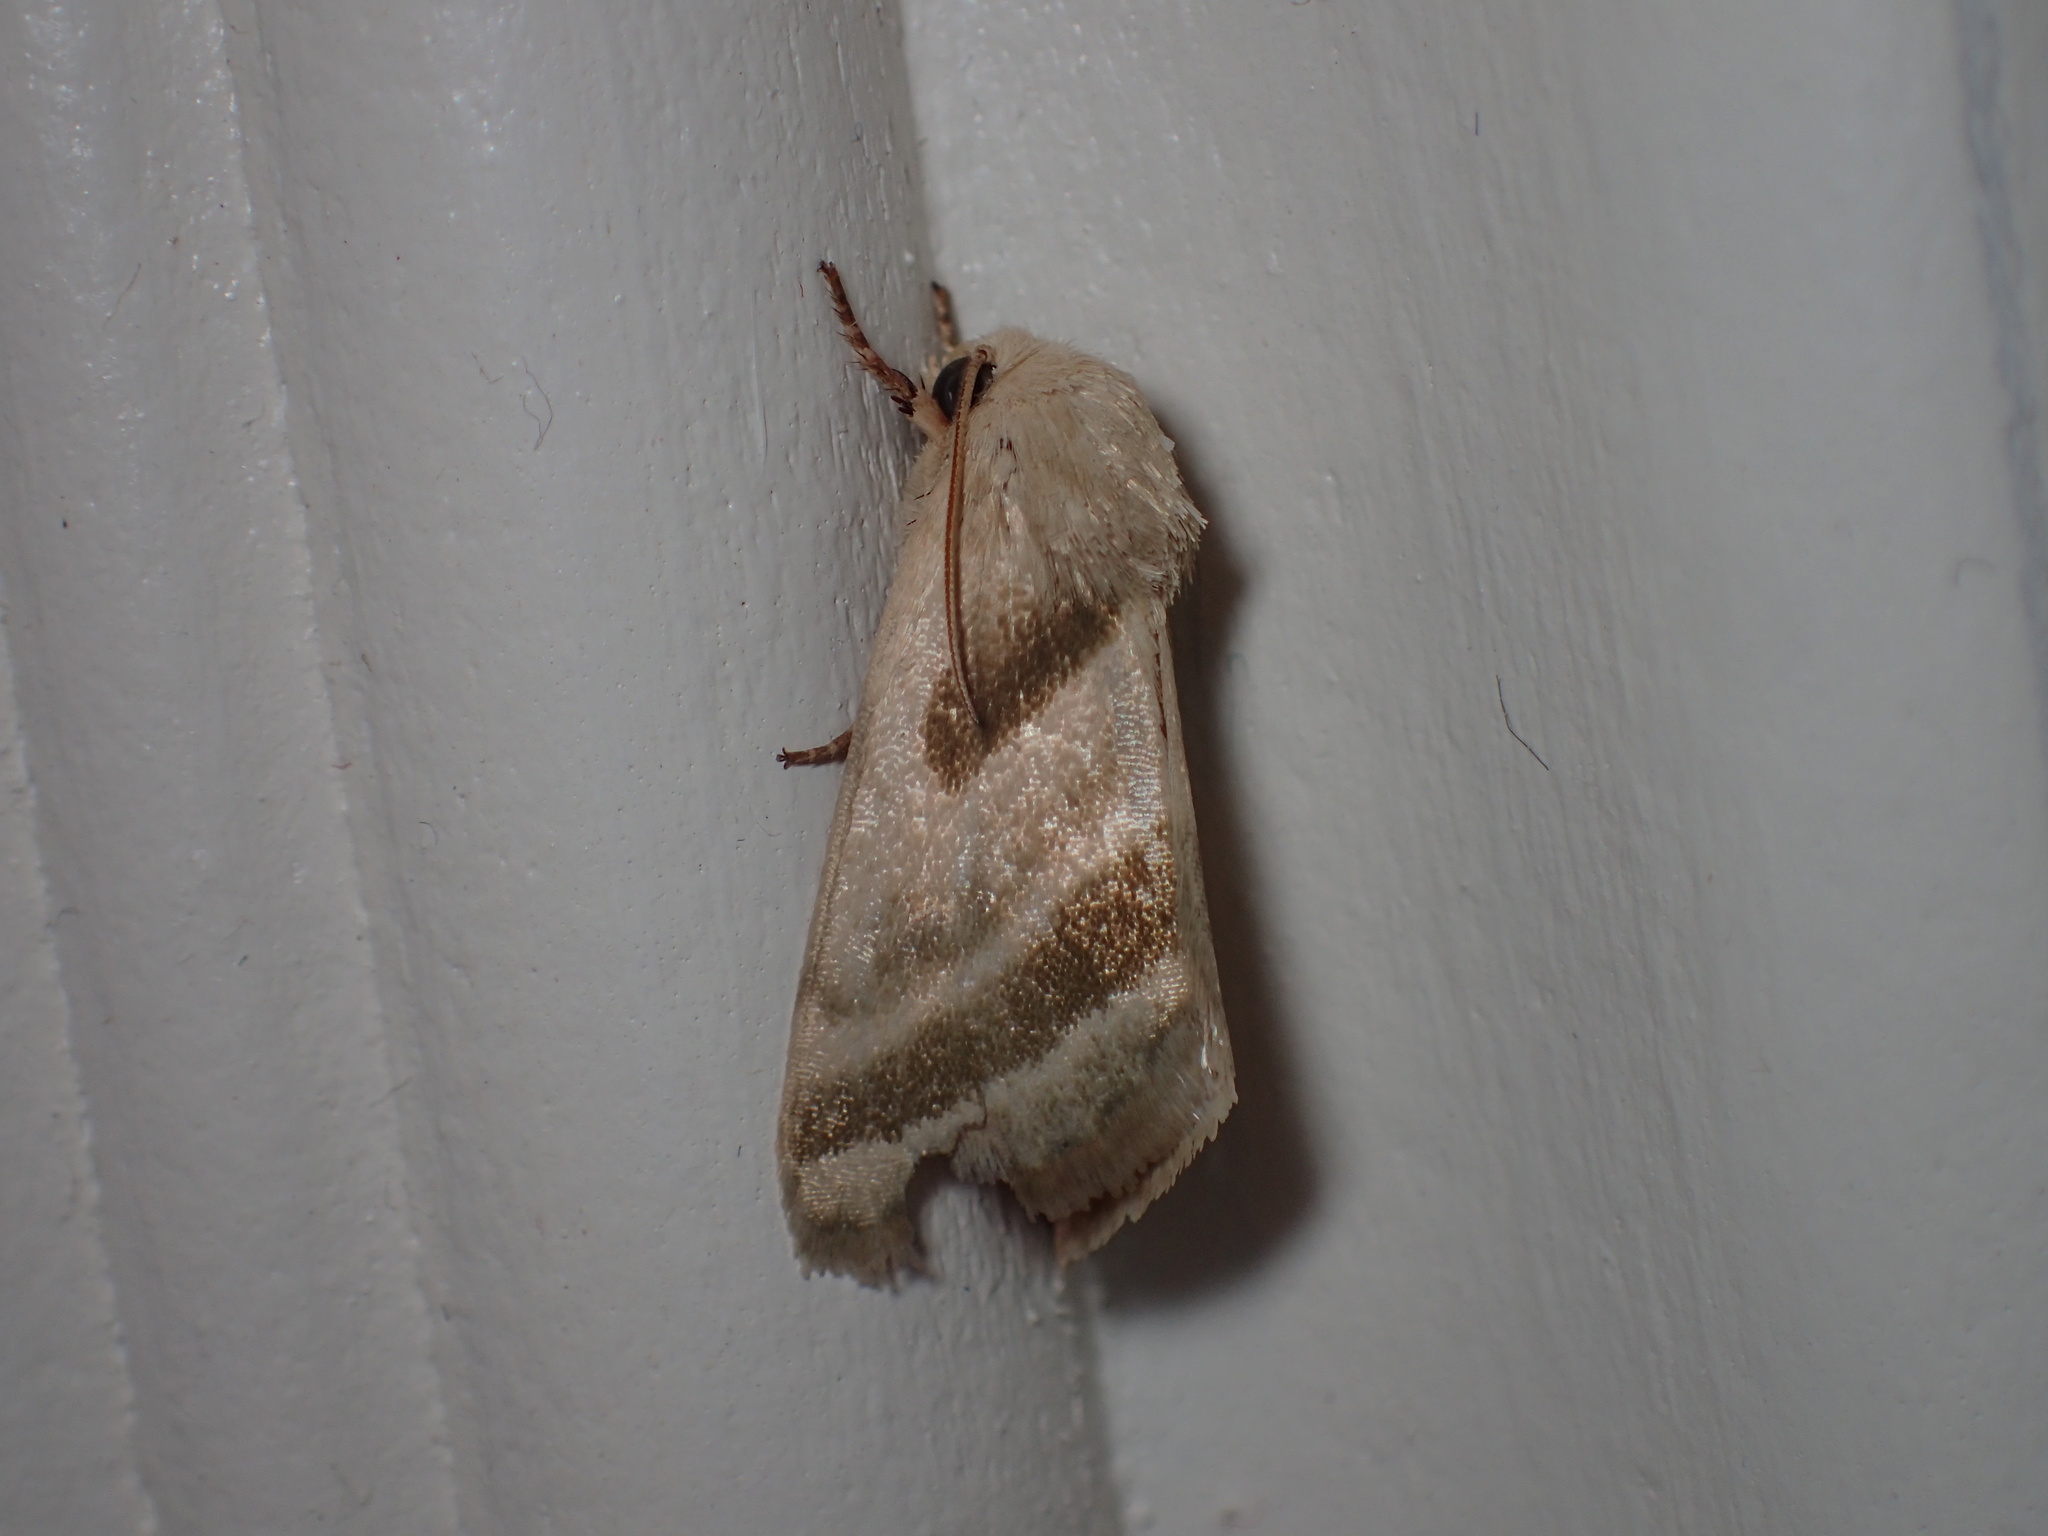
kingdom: Animalia
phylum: Arthropoda
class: Insecta
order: Lepidoptera
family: Noctuidae
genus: Schinia
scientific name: Schinia trifascia
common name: Three-lined flower moth
